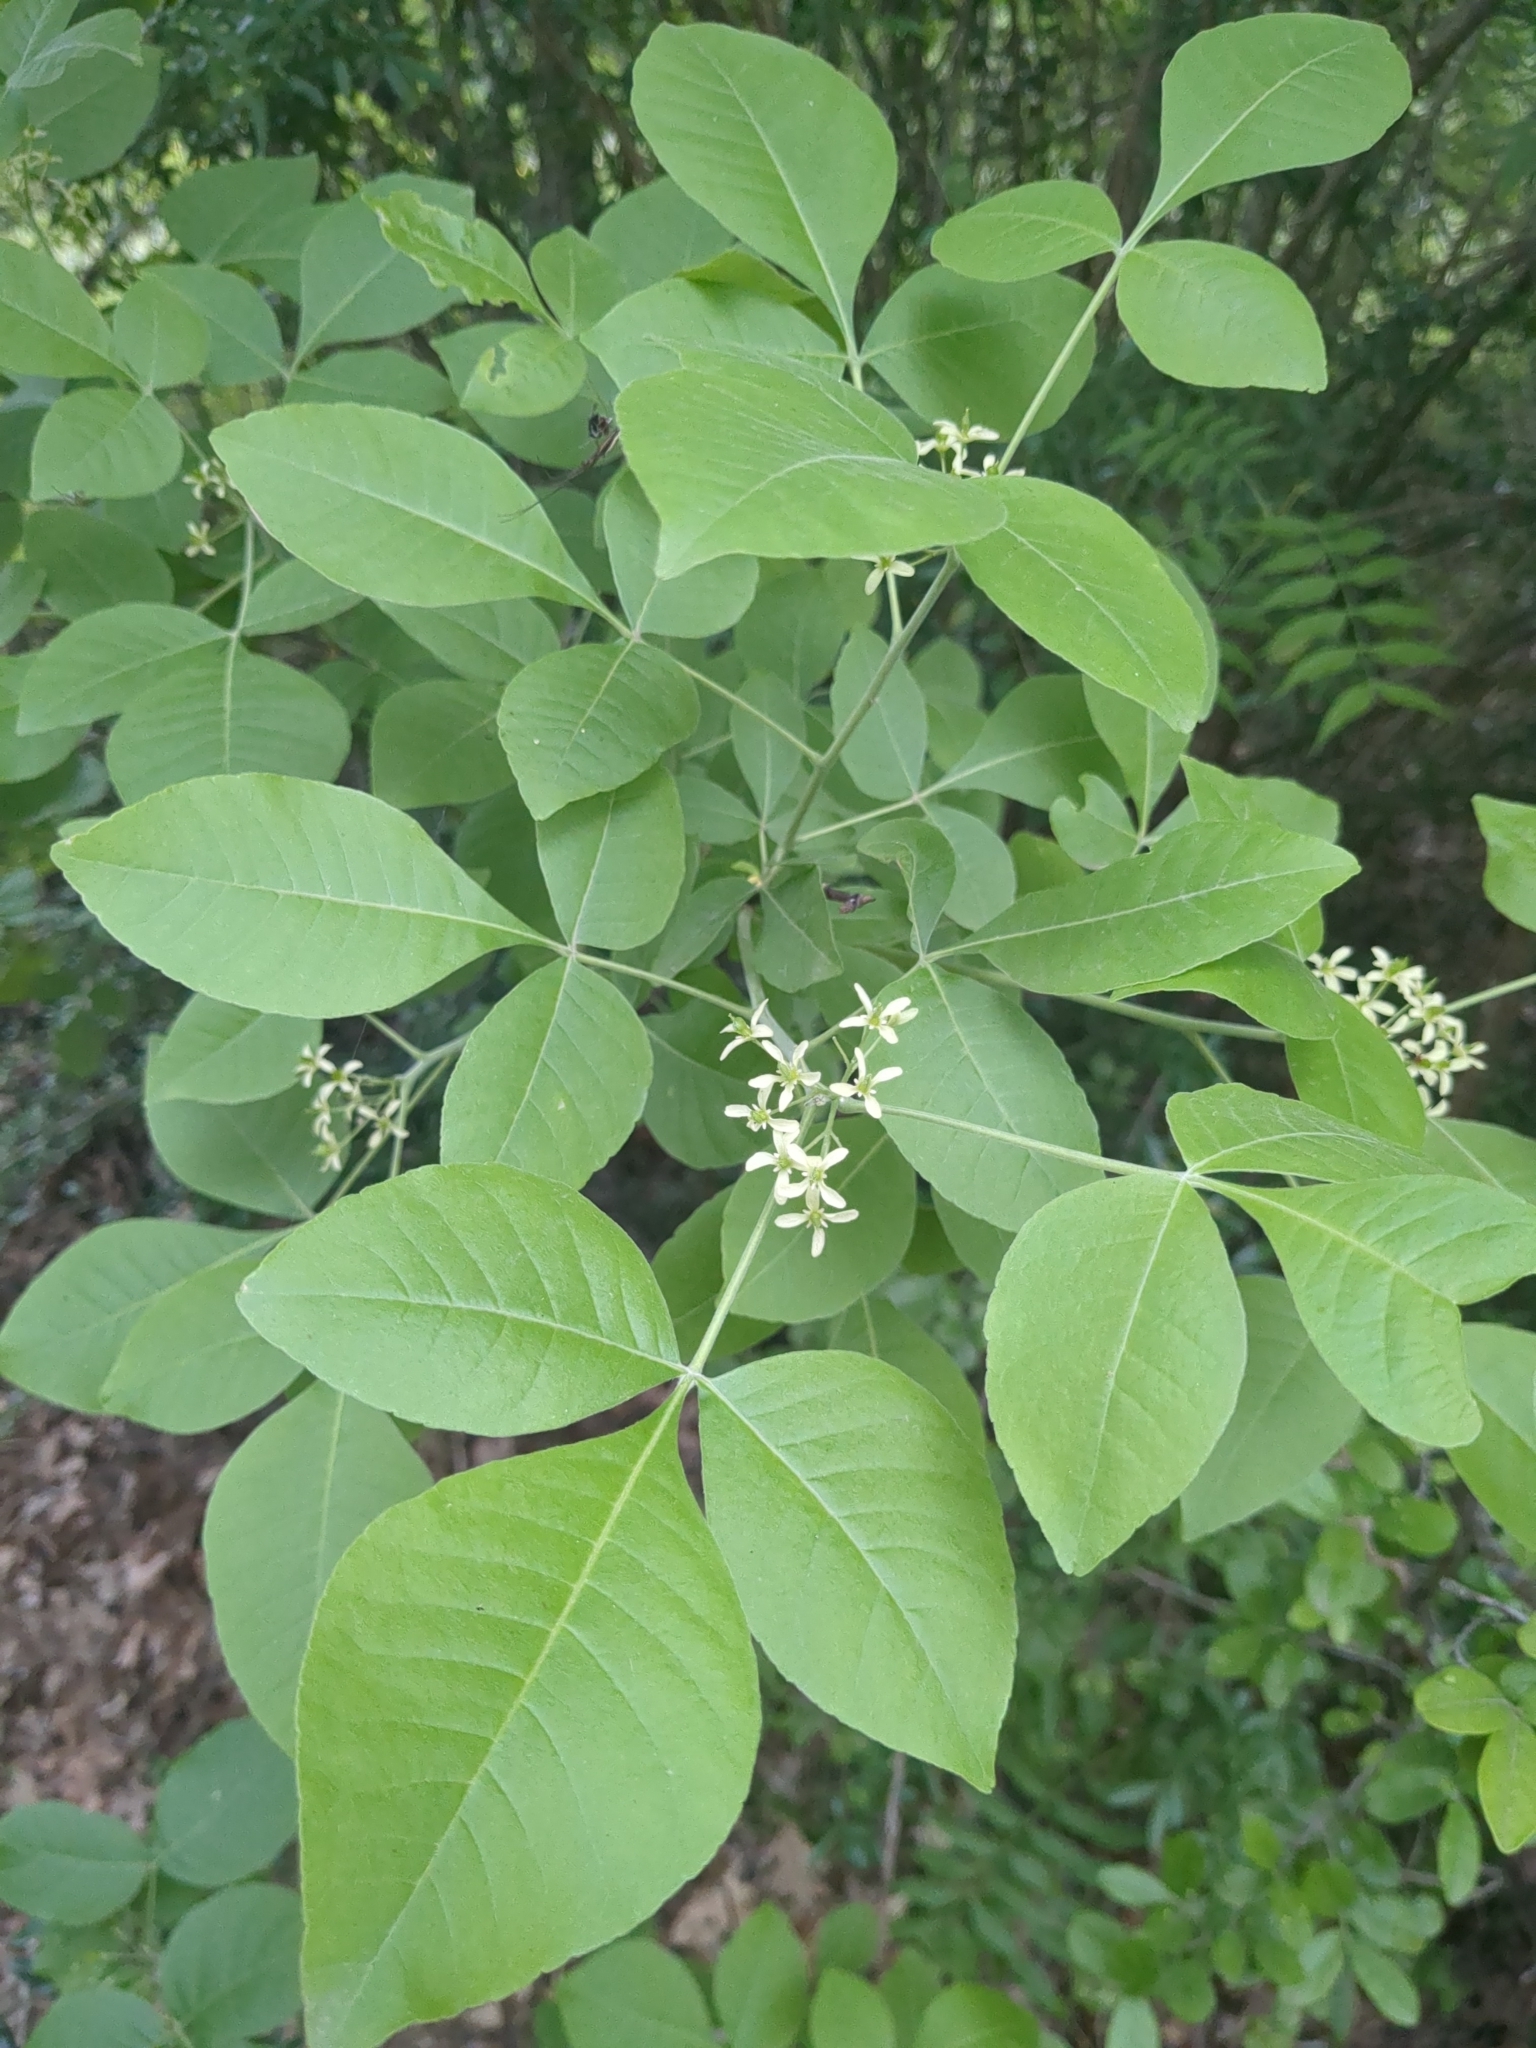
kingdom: Plantae
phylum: Tracheophyta
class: Magnoliopsida
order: Sapindales
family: Rutaceae
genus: Ptelea
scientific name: Ptelea trifoliata
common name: Common hop-tree
